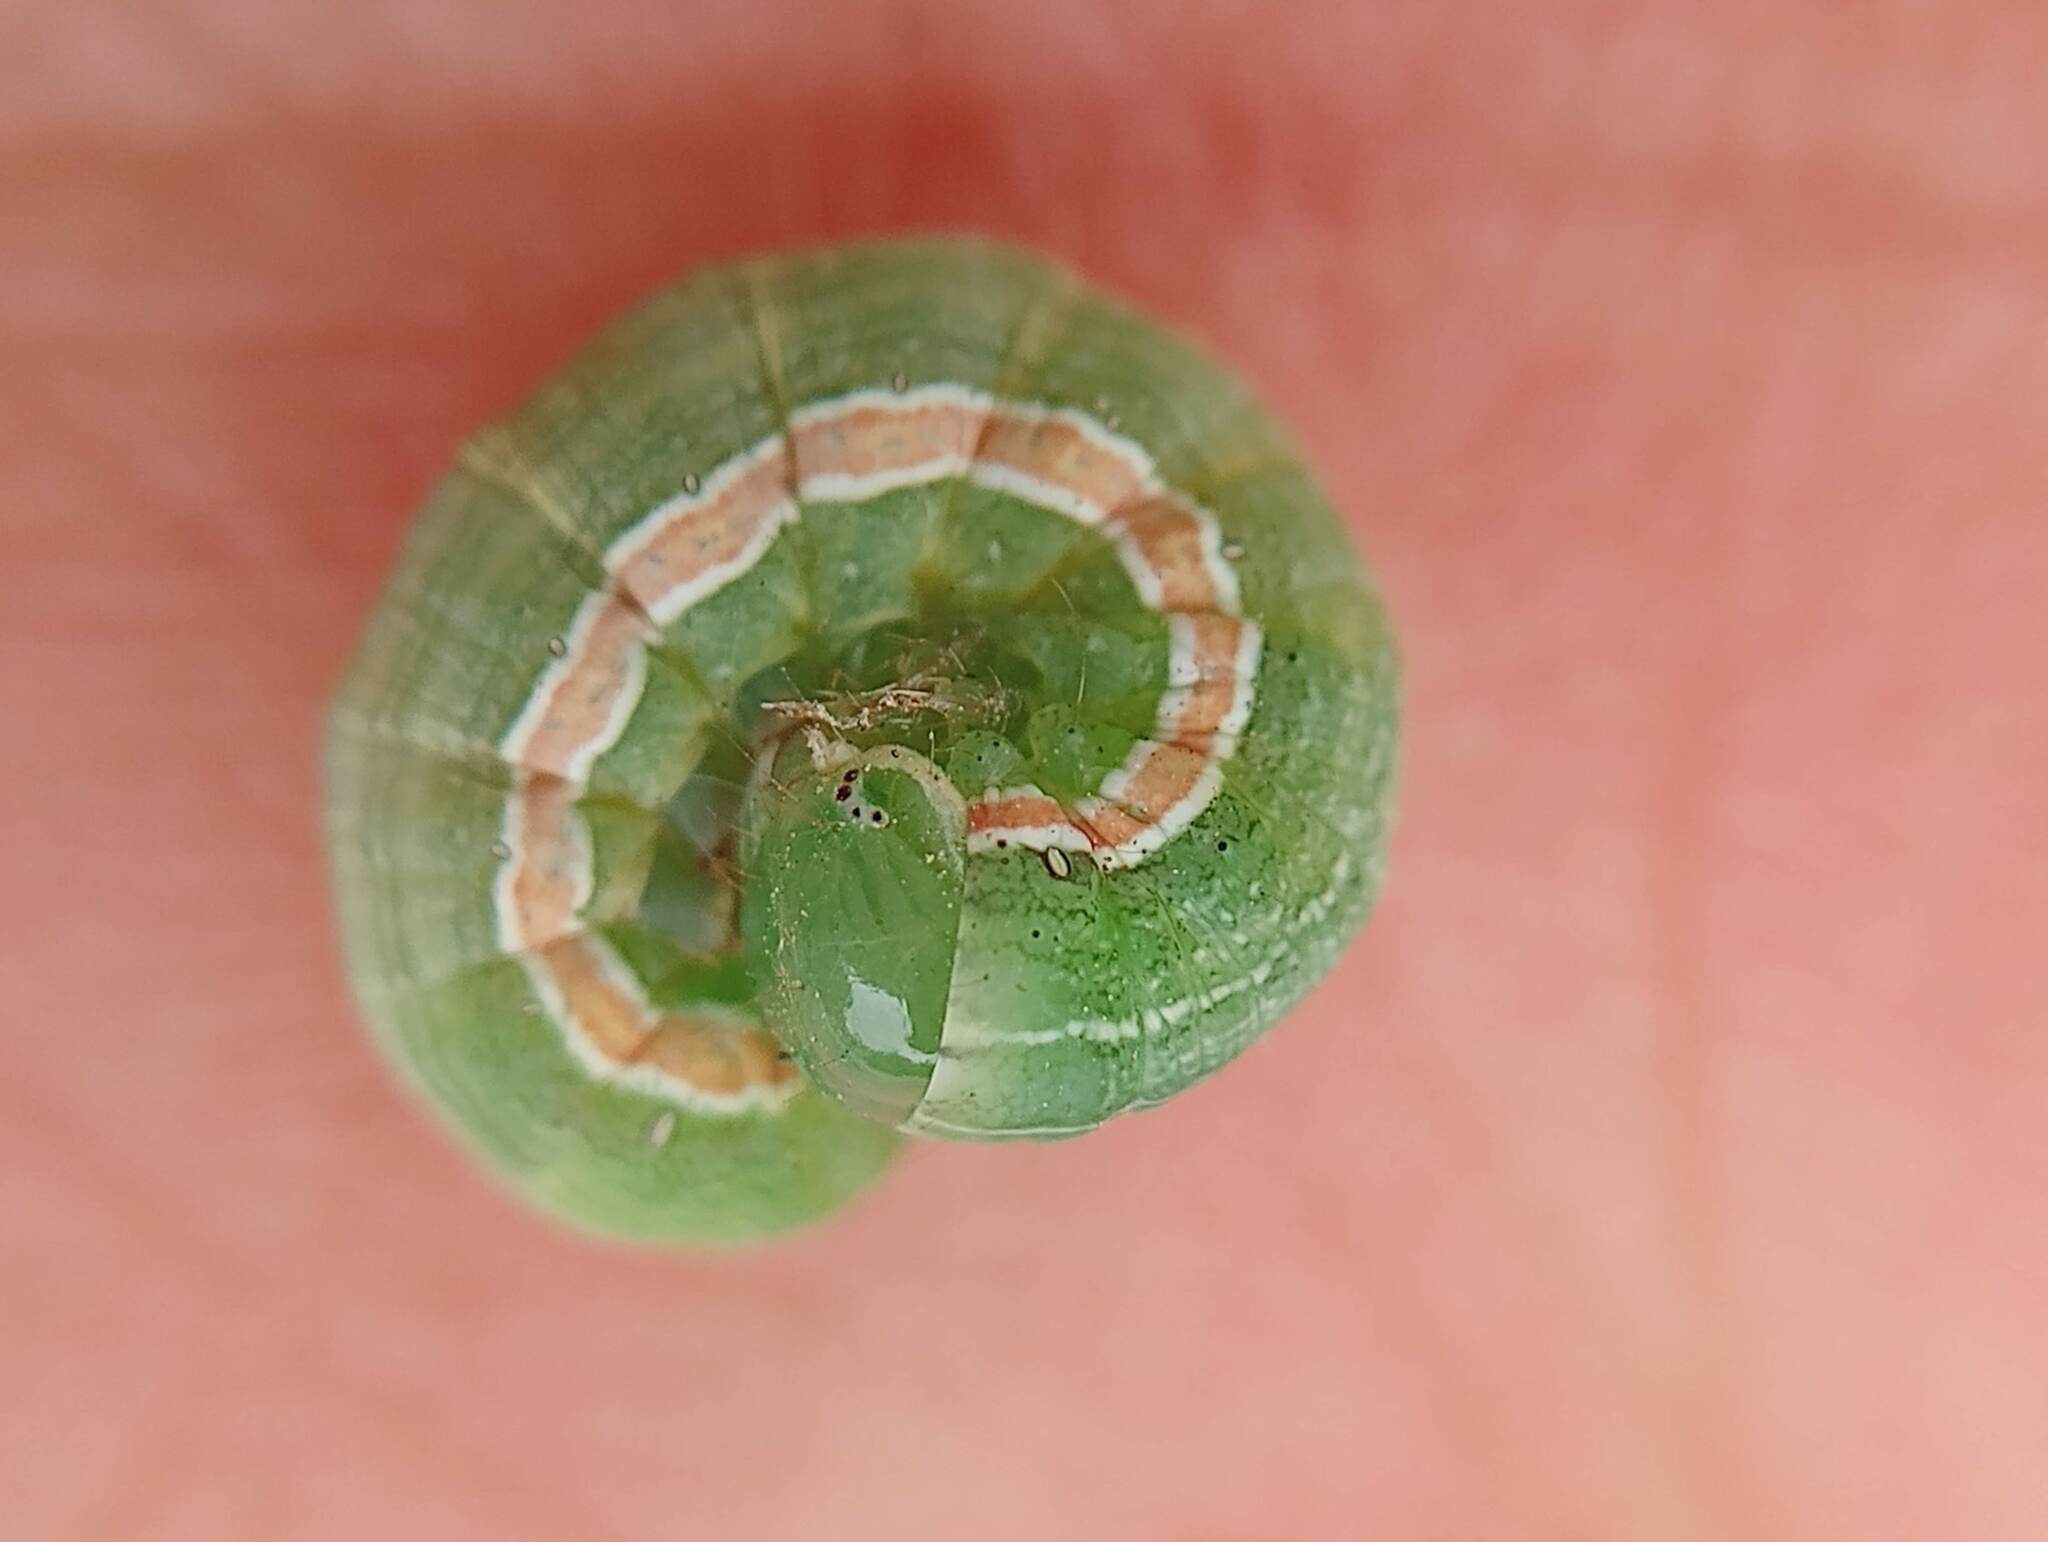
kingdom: Animalia
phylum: Arthropoda
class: Insecta
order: Lepidoptera
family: Noctuidae
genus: Anicla
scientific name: Anicla infecta
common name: Green cutworm
